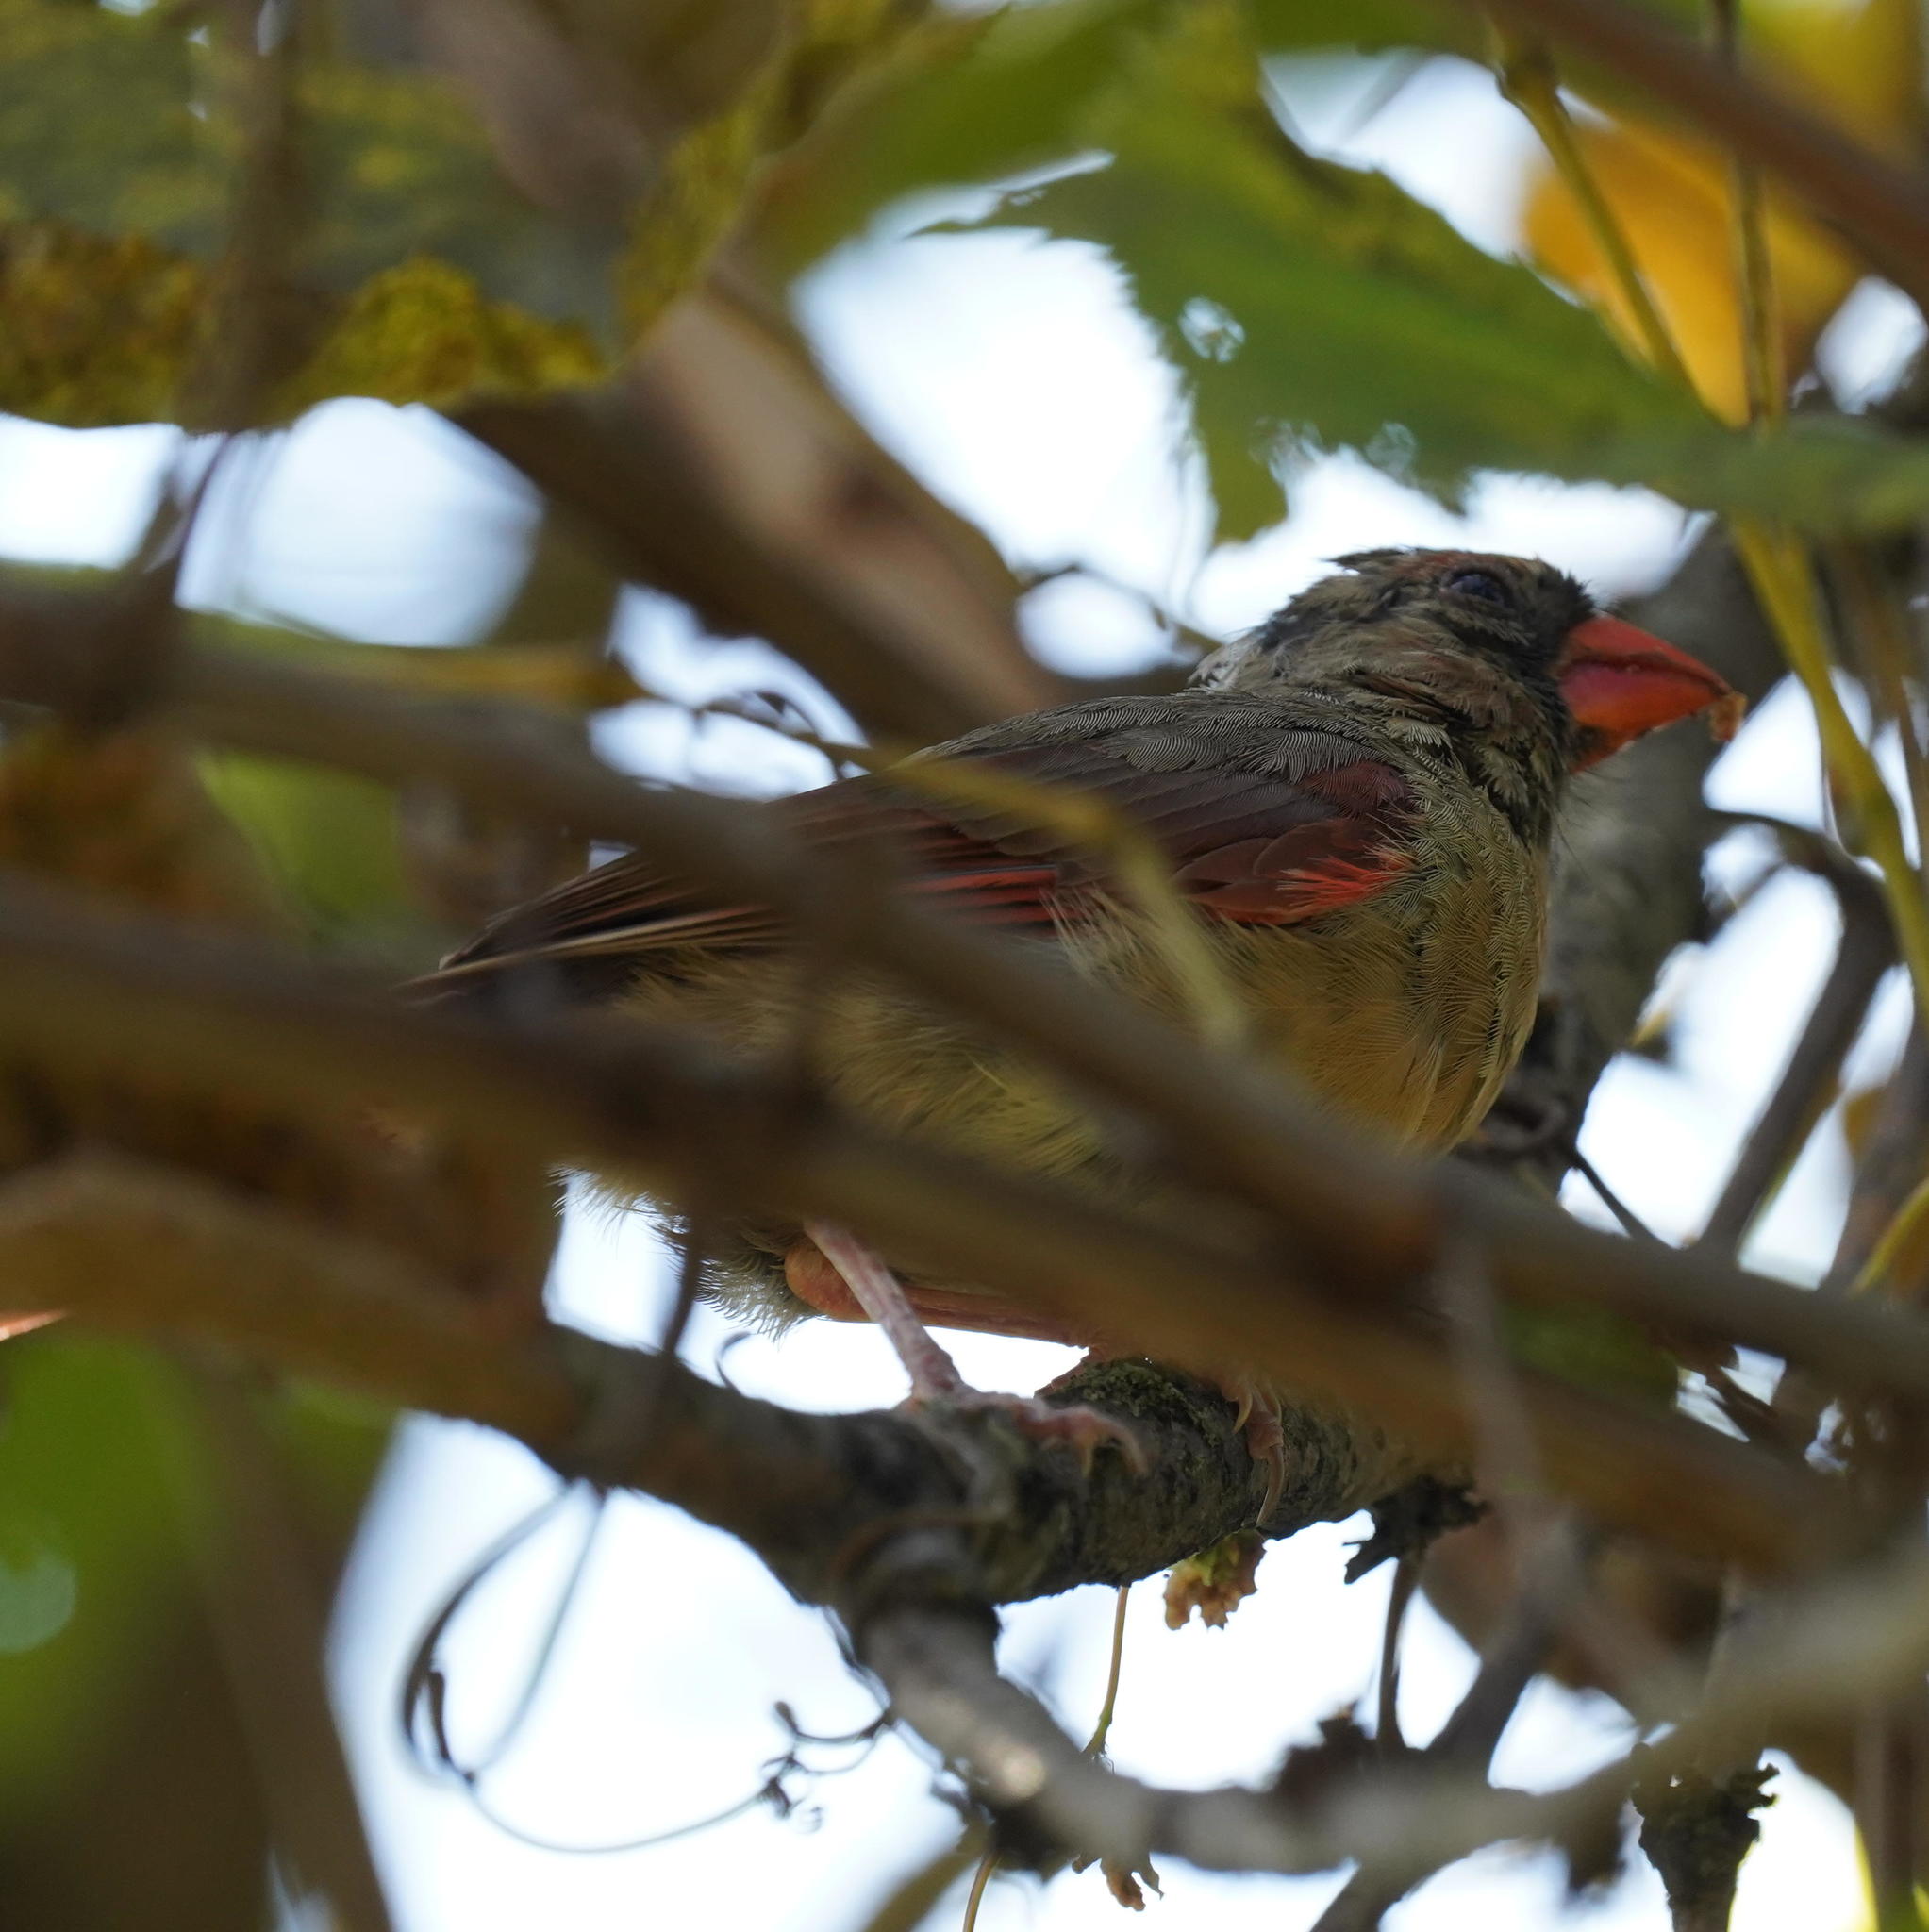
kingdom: Animalia
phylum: Chordata
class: Aves
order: Passeriformes
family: Cardinalidae
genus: Cardinalis
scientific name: Cardinalis cardinalis
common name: Northern cardinal
